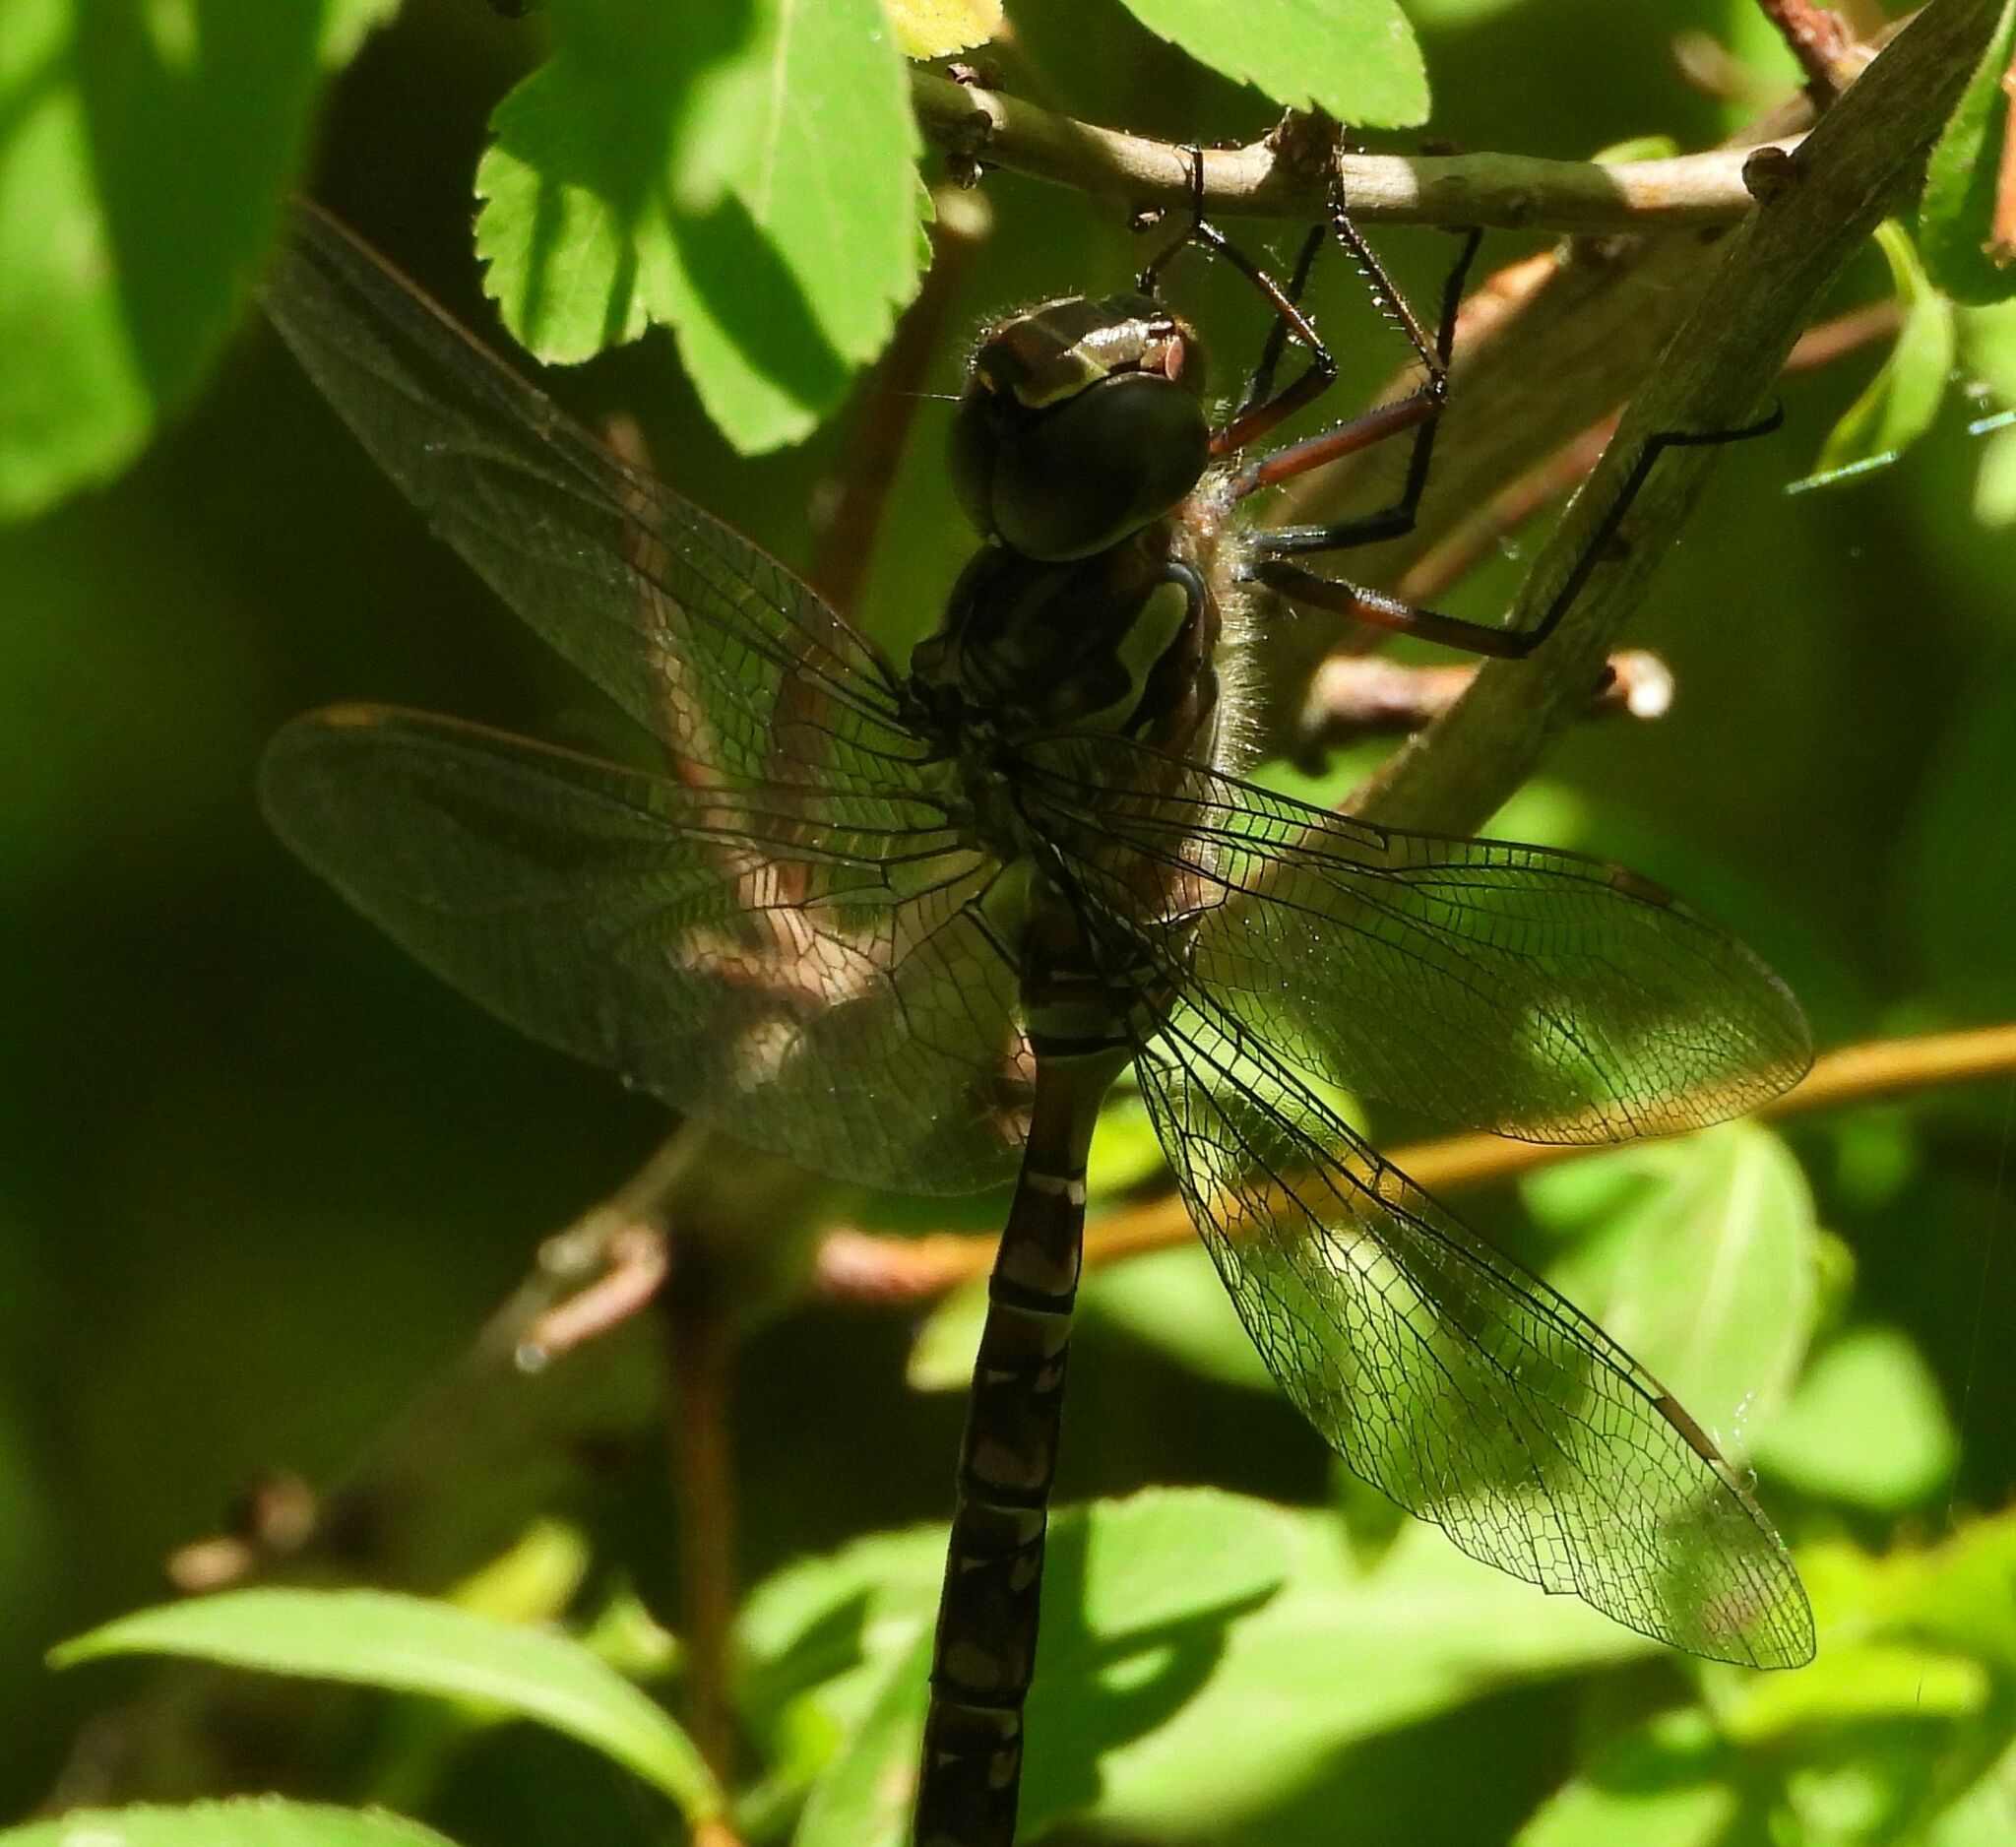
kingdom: Animalia
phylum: Arthropoda
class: Insecta
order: Odonata
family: Aeshnidae
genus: Aeshna
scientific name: Aeshna canadensis
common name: Canada darner
